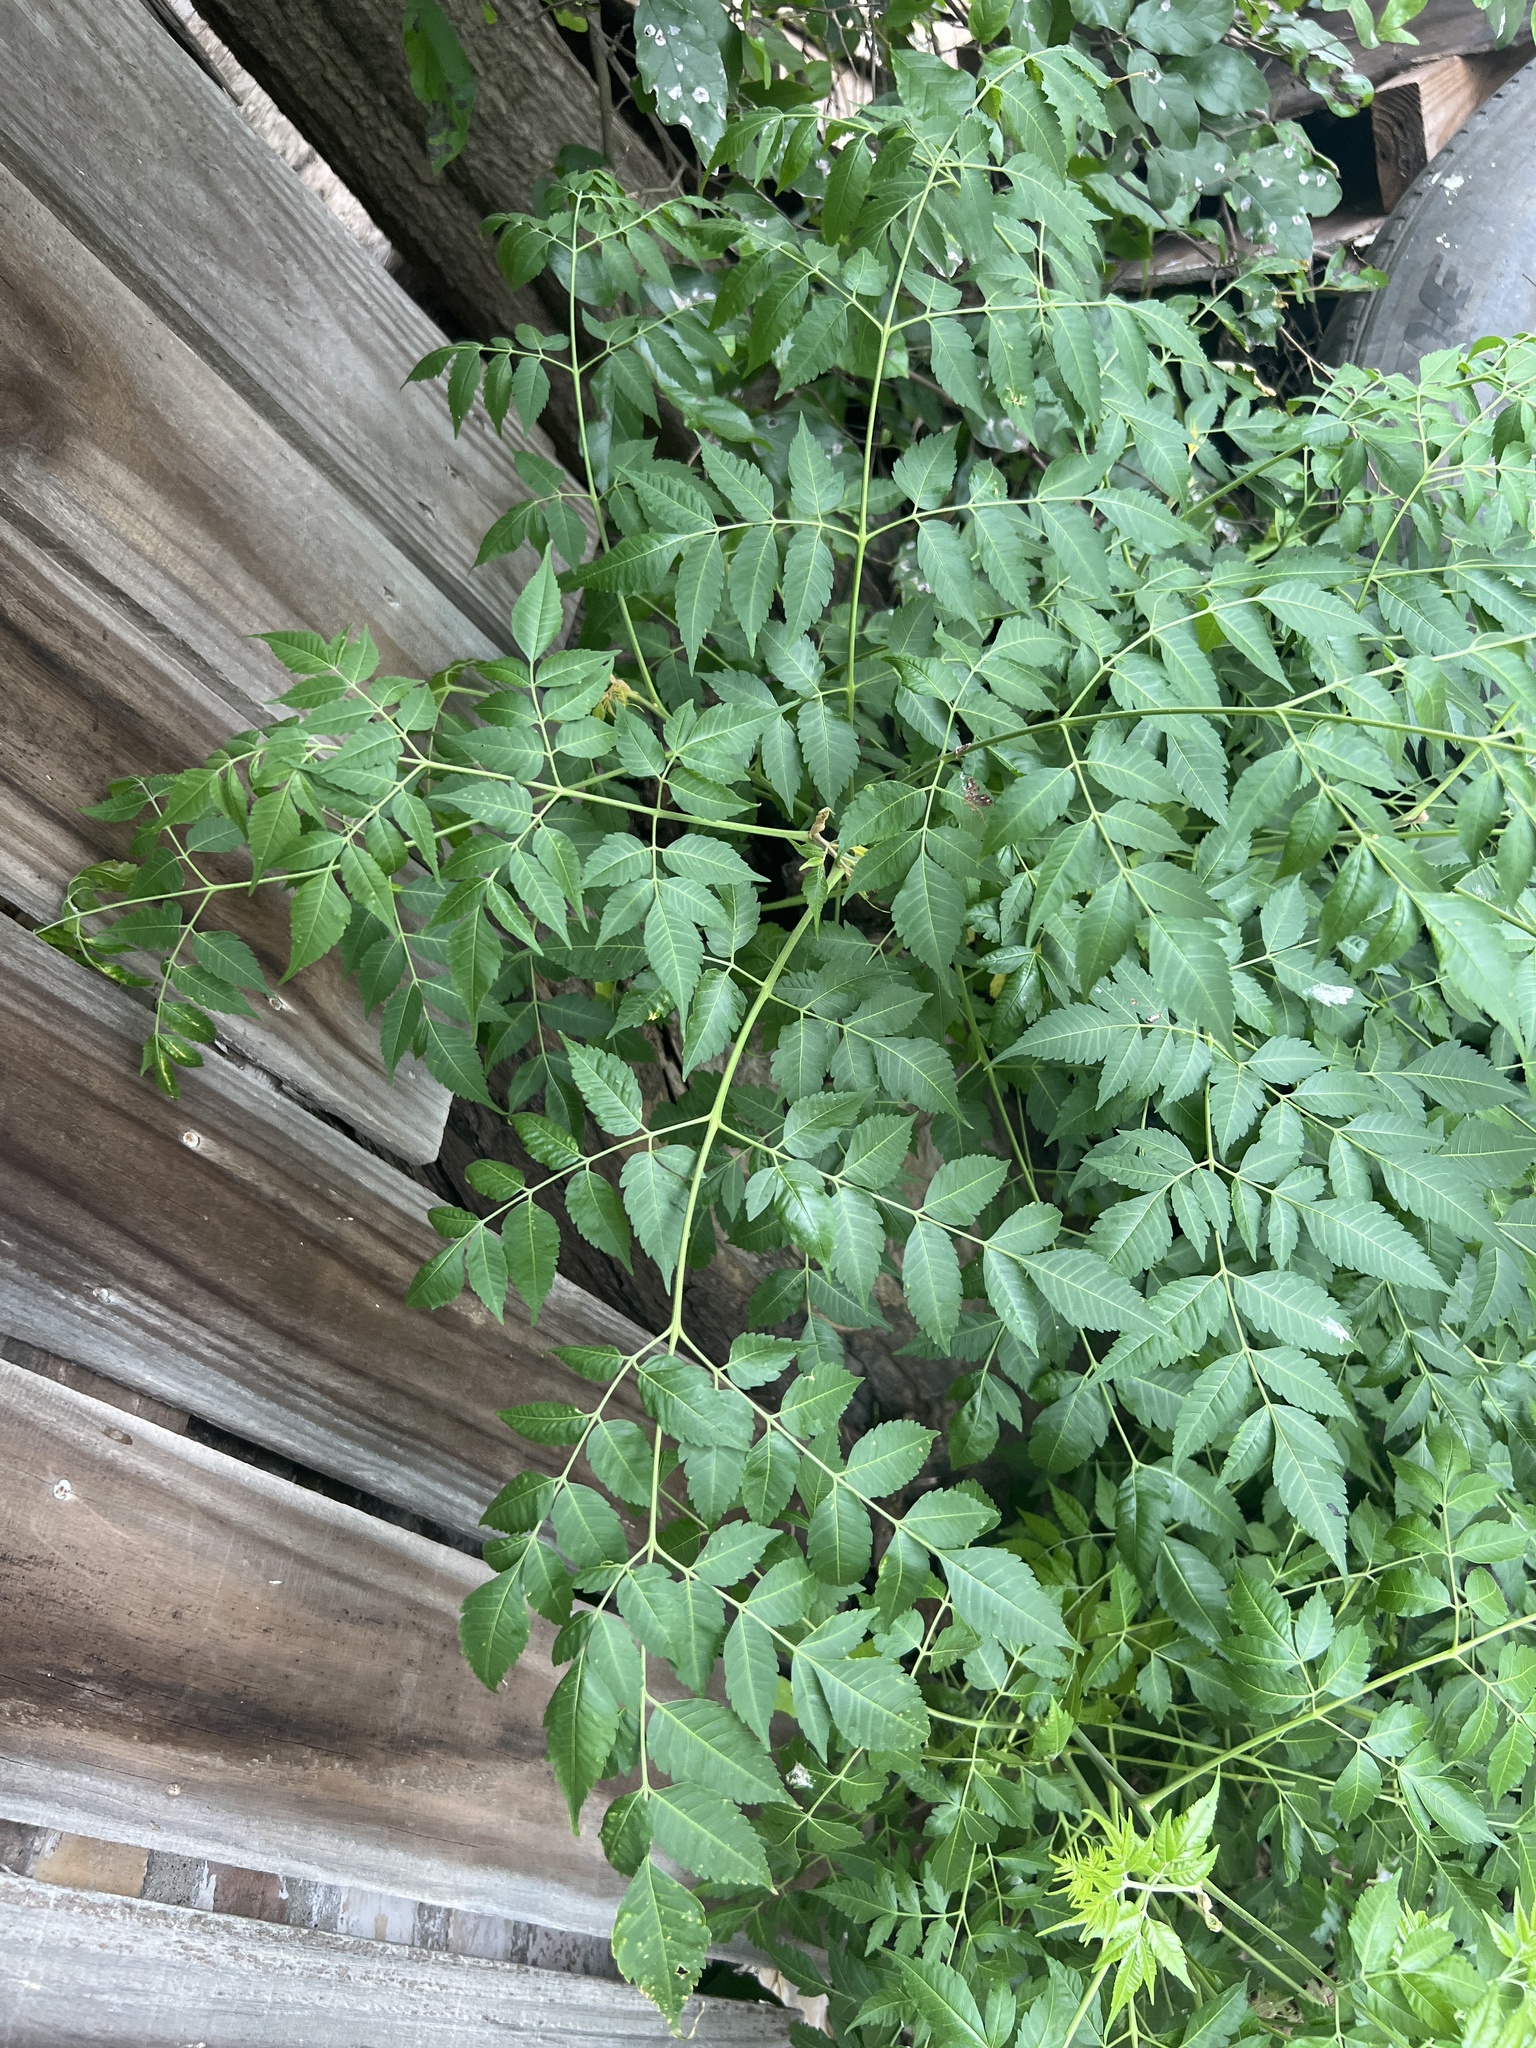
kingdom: Plantae
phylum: Tracheophyta
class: Magnoliopsida
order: Sapindales
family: Meliaceae
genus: Melia
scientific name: Melia azedarach
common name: Chinaberrytree
